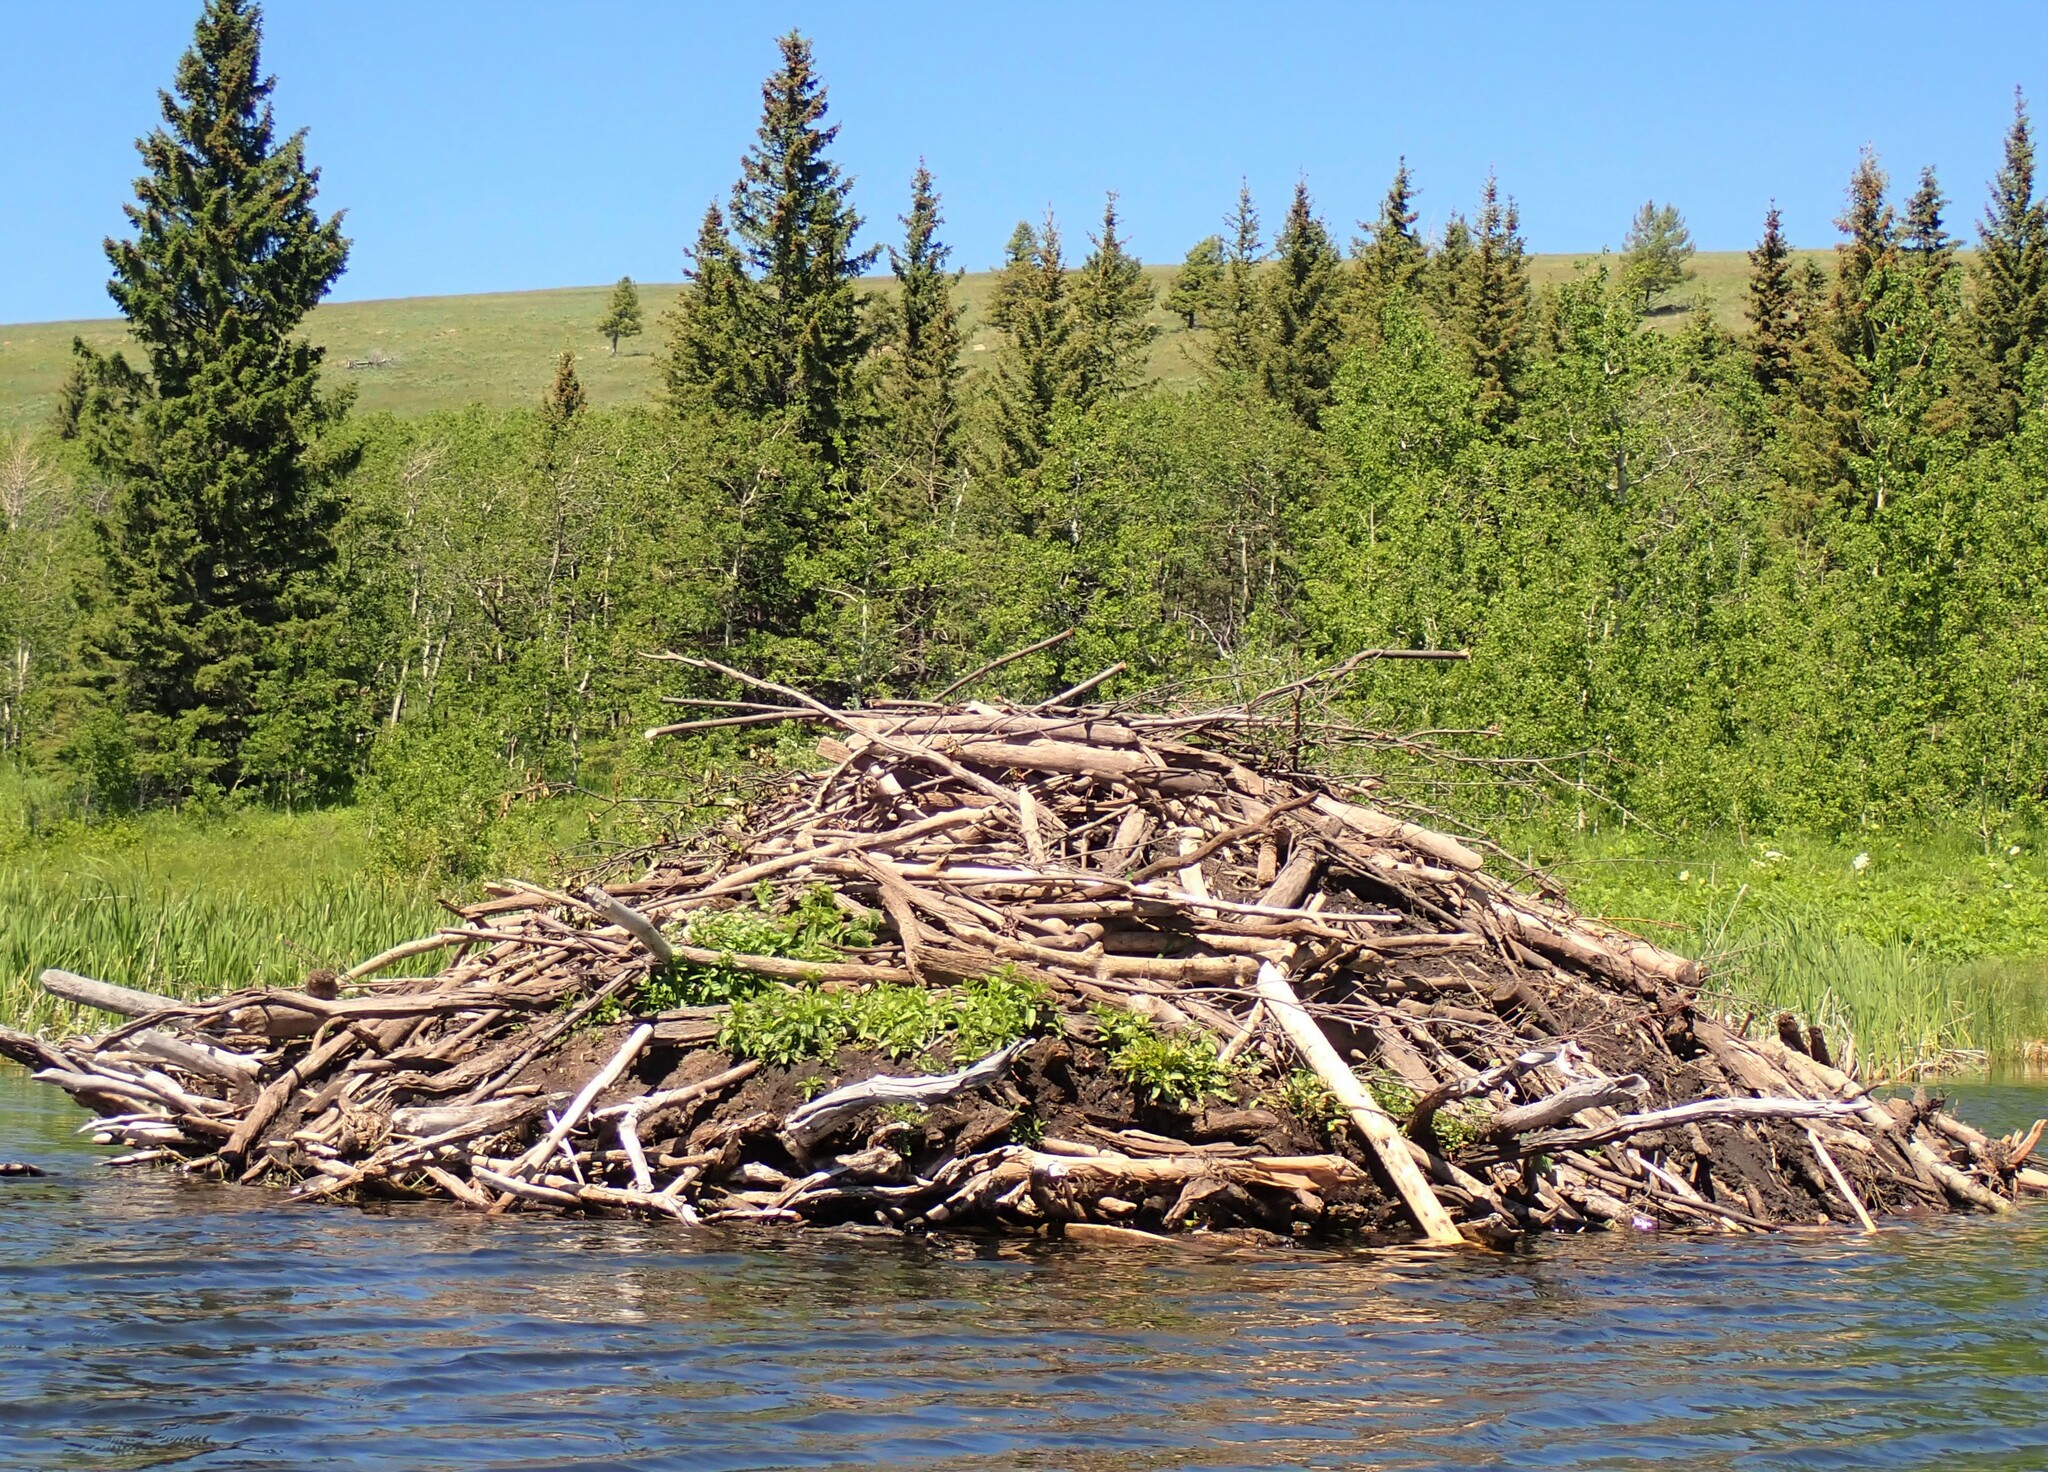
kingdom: Animalia
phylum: Chordata
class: Mammalia
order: Rodentia
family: Castoridae
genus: Castor
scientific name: Castor canadensis
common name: American beaver
